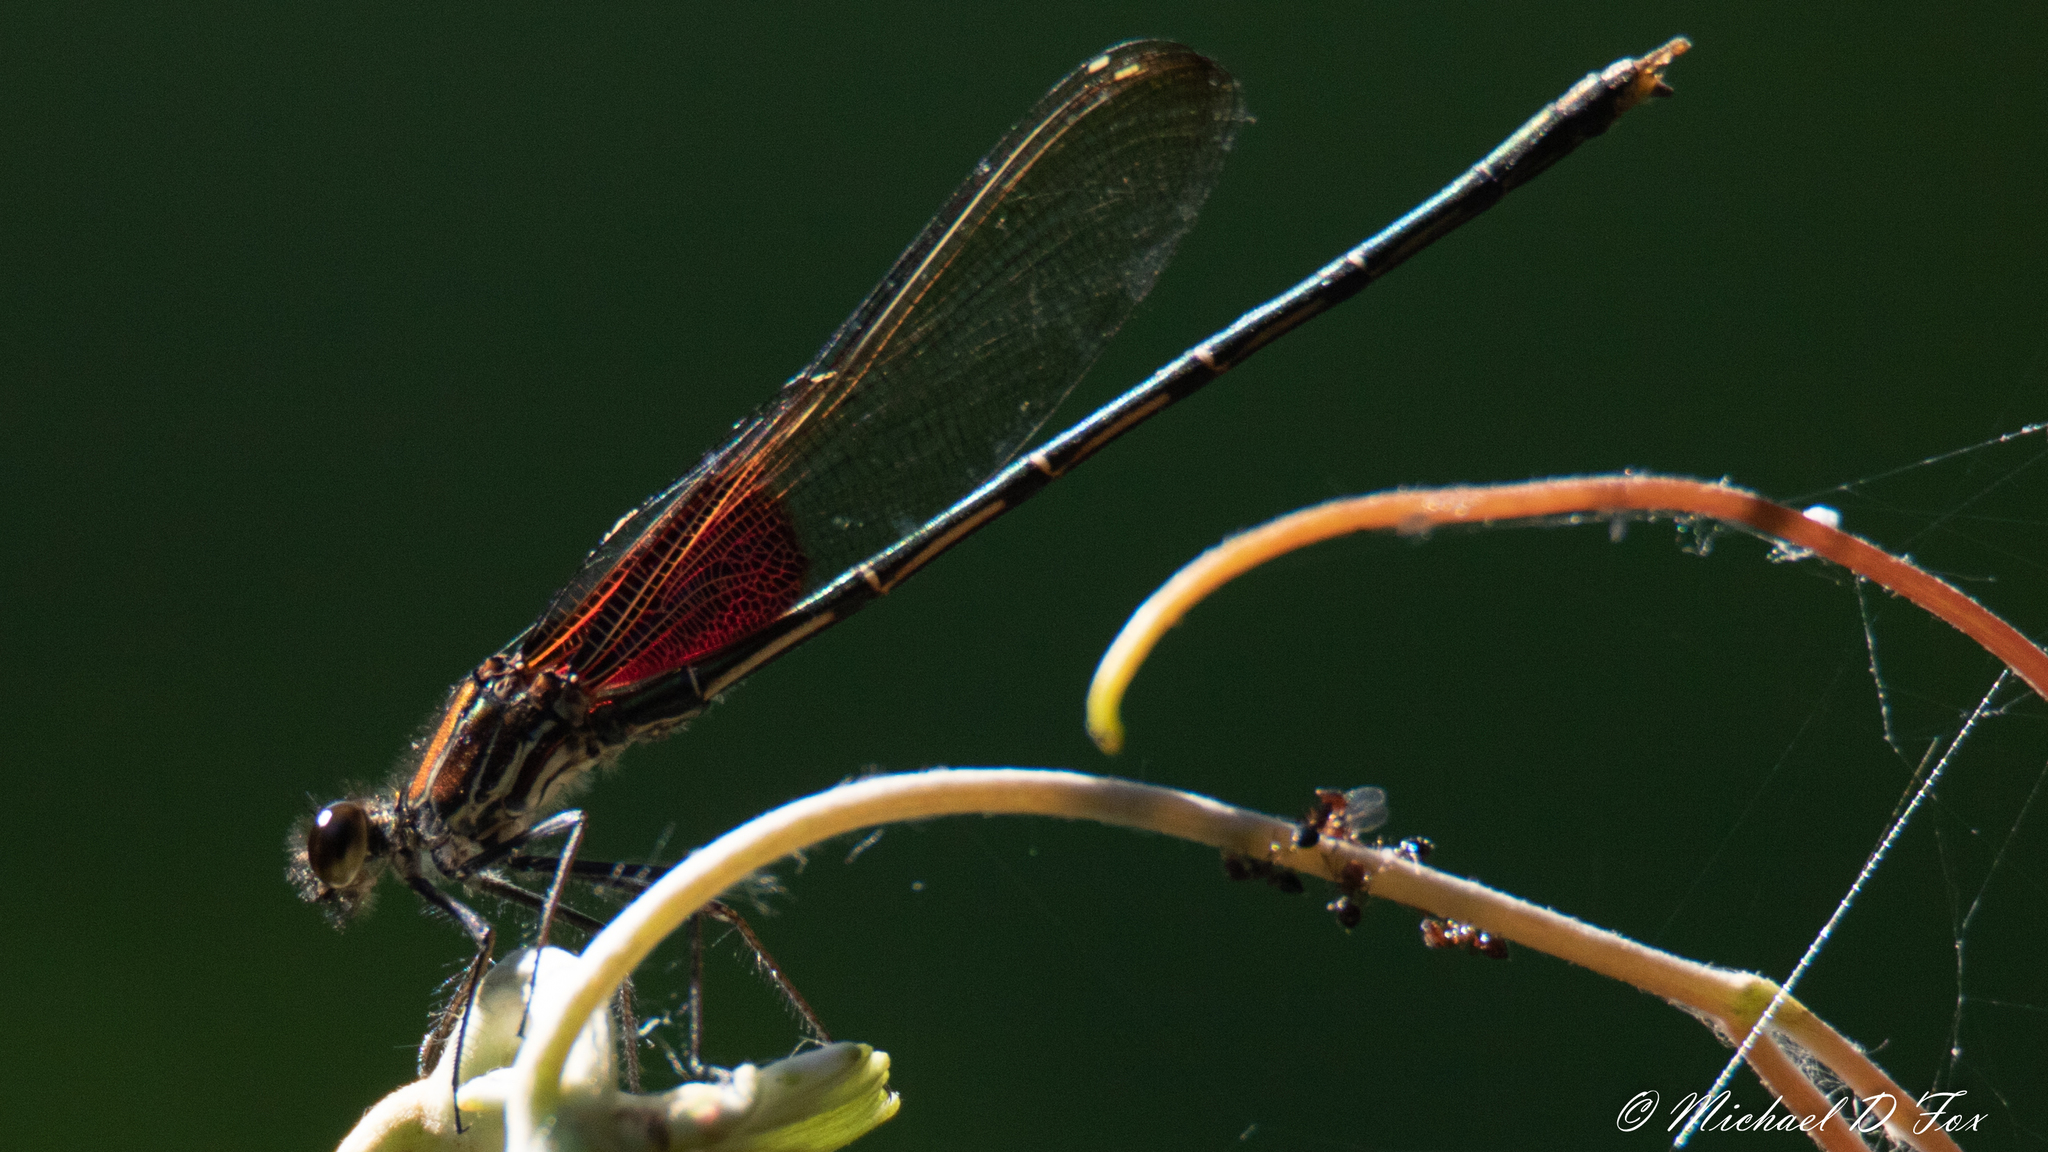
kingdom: Animalia
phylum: Arthropoda
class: Insecta
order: Odonata
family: Calopterygidae
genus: Hetaerina
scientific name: Hetaerina americana
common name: American rubyspot
